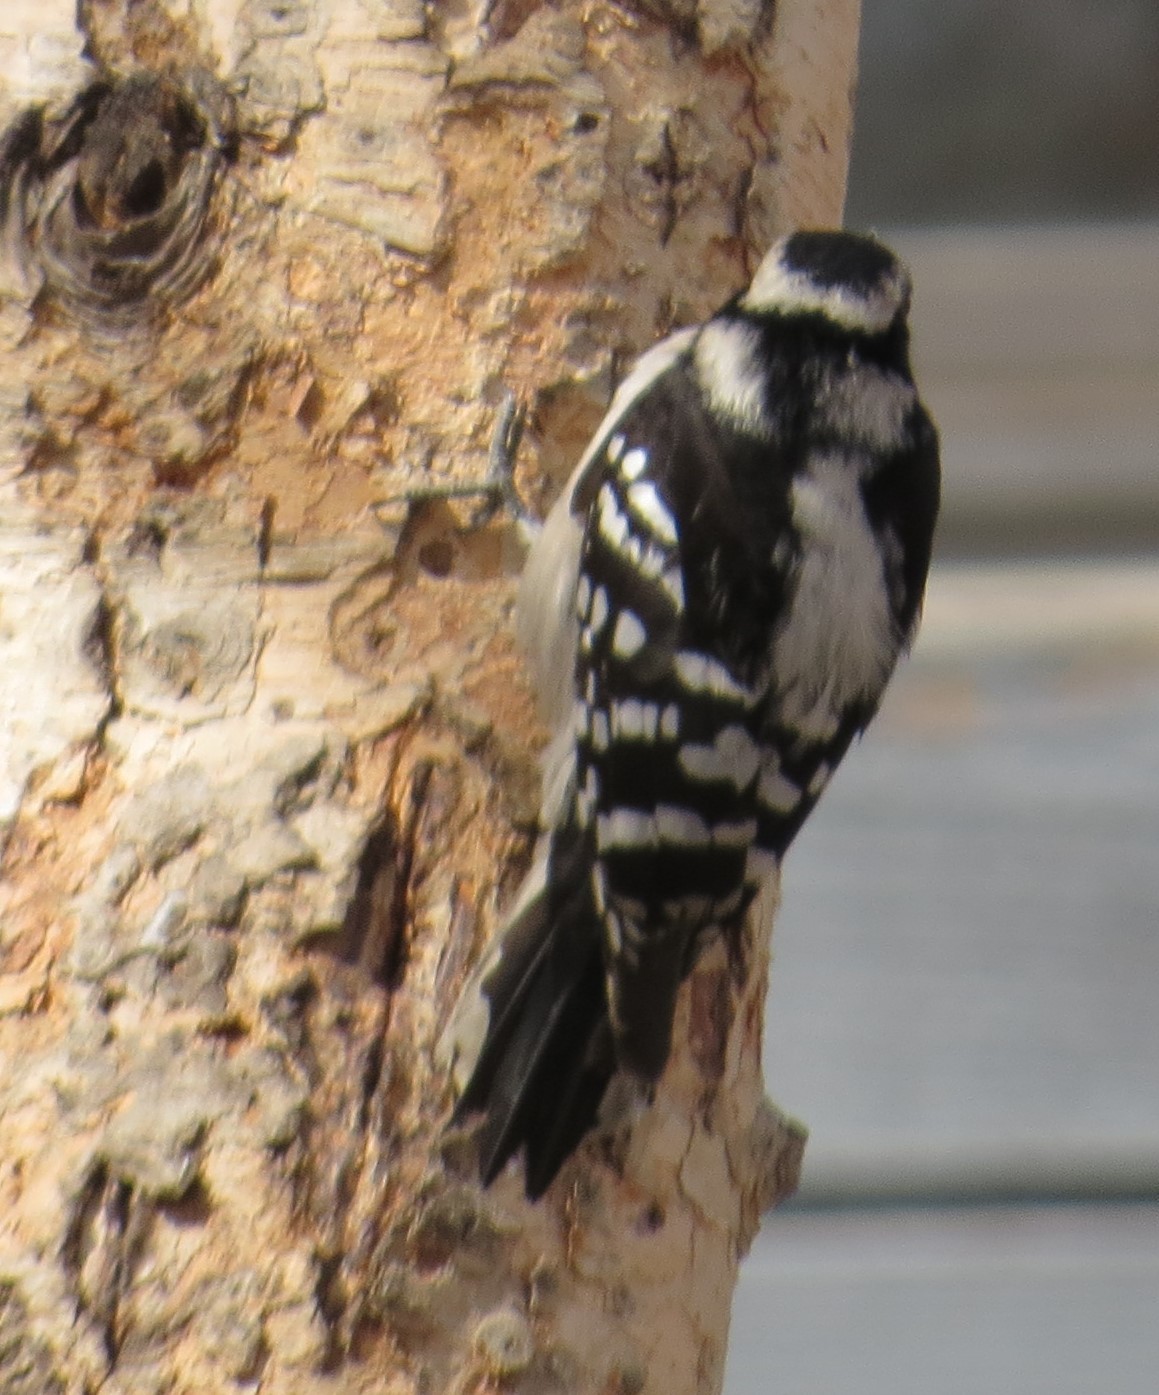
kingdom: Animalia
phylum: Chordata
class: Aves
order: Piciformes
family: Picidae
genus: Dryobates
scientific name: Dryobates pubescens
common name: Downy woodpecker
